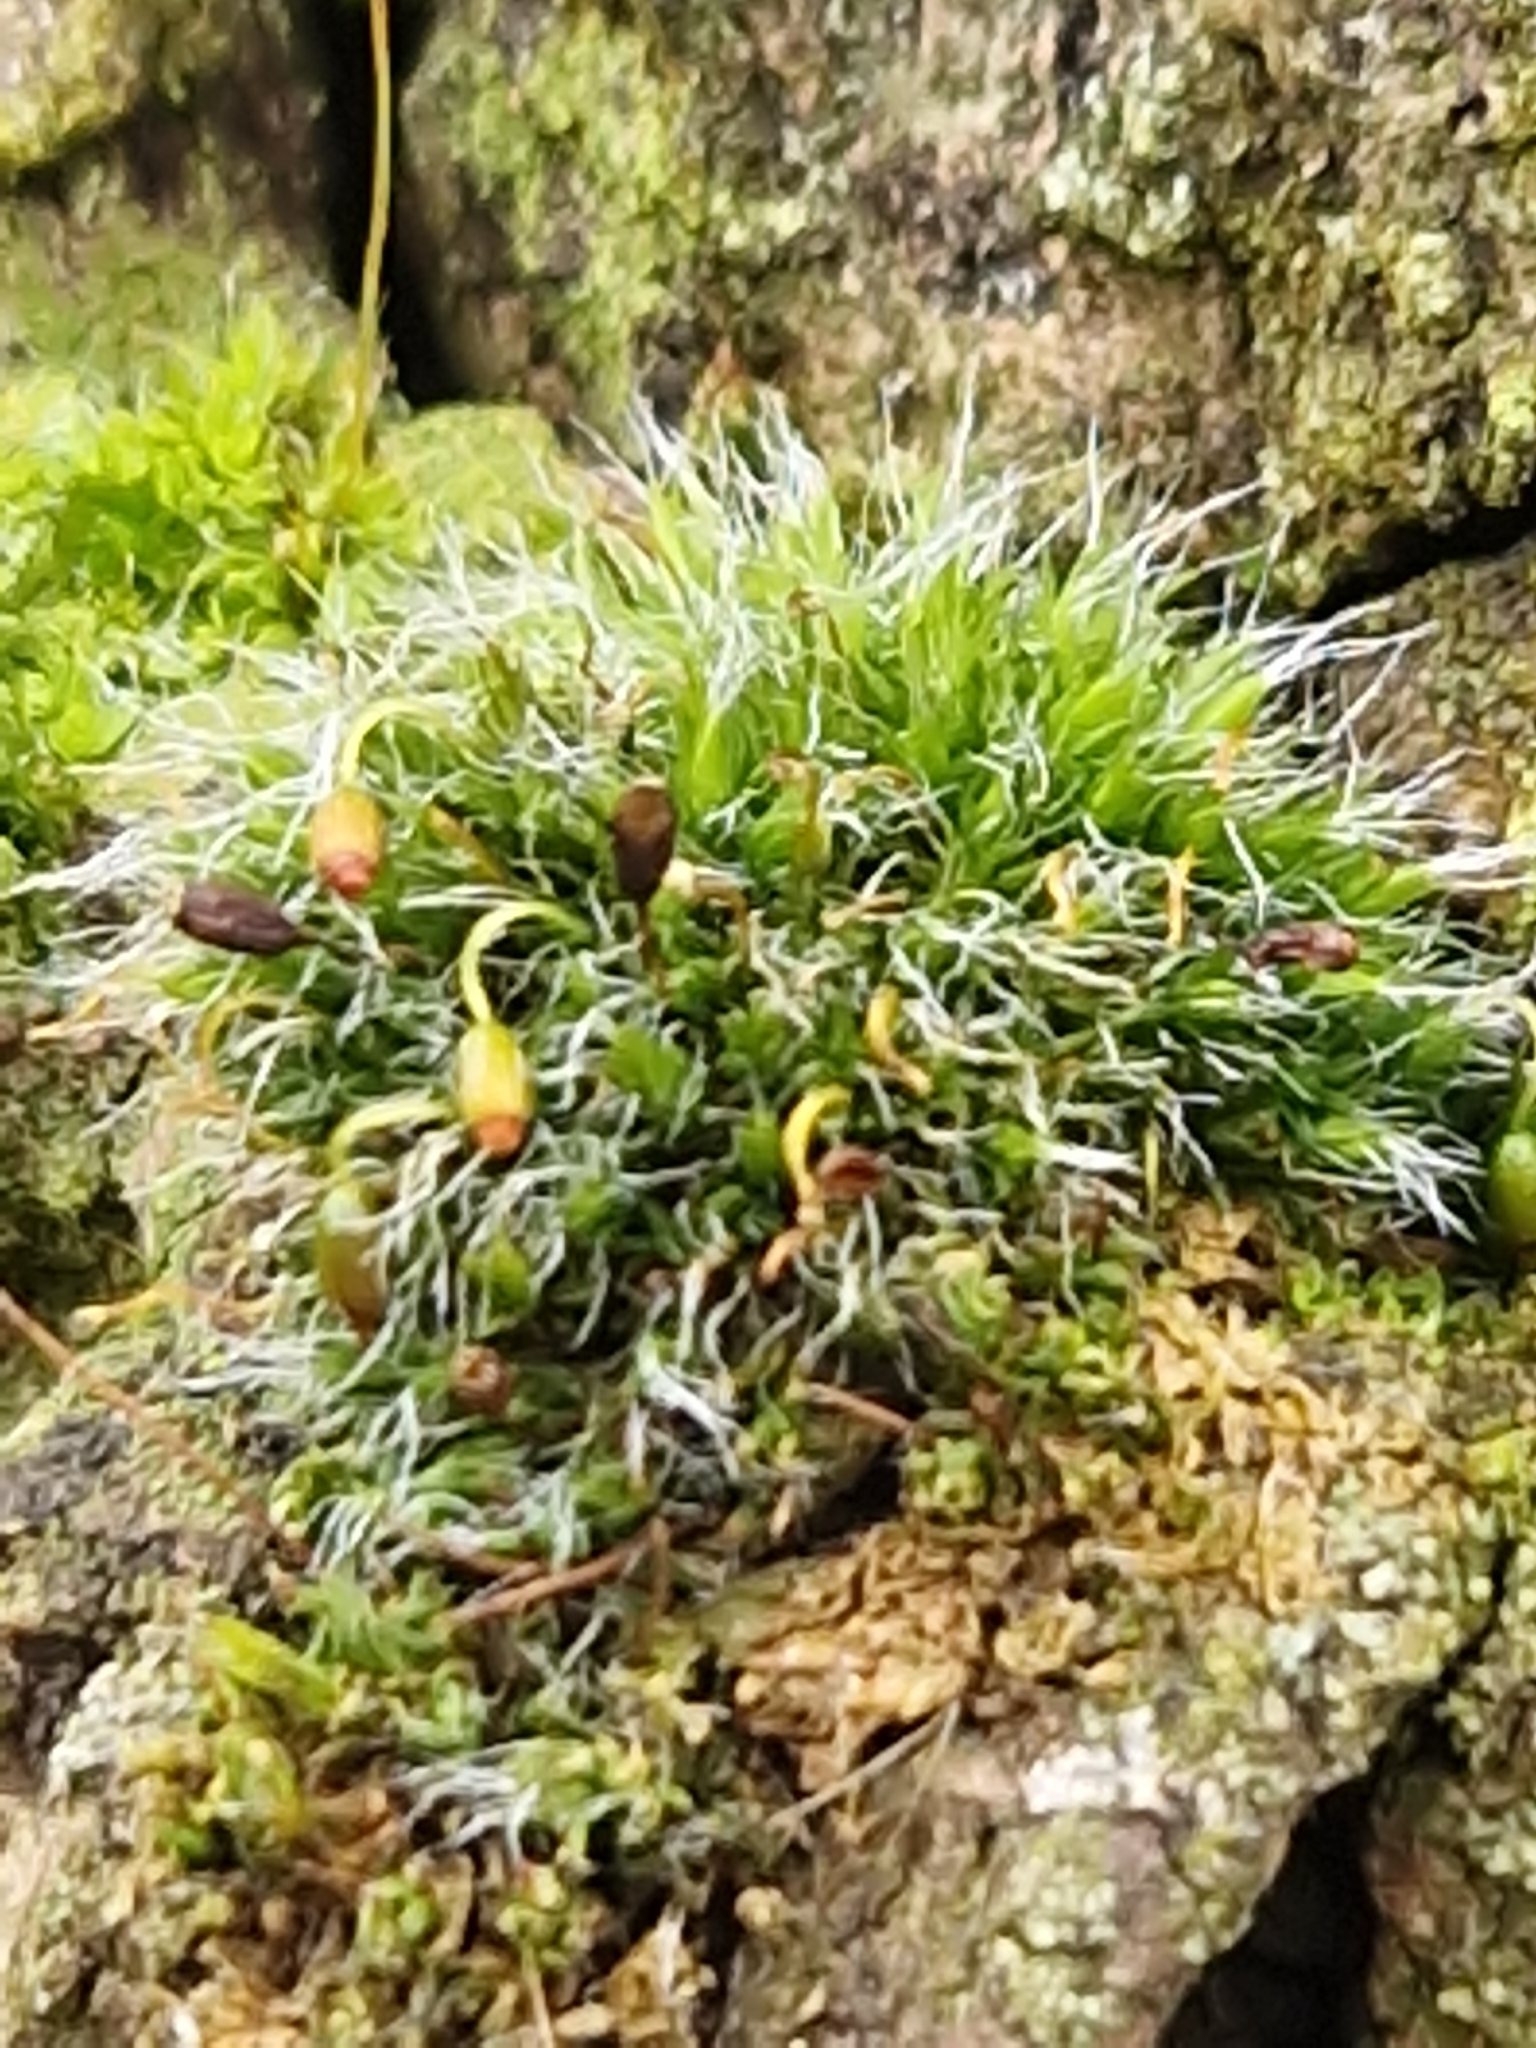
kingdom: Plantae
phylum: Bryophyta
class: Bryopsida
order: Grimmiales
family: Grimmiaceae
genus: Grimmia
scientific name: Grimmia pulvinata
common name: Grey-cushioned grimmia
